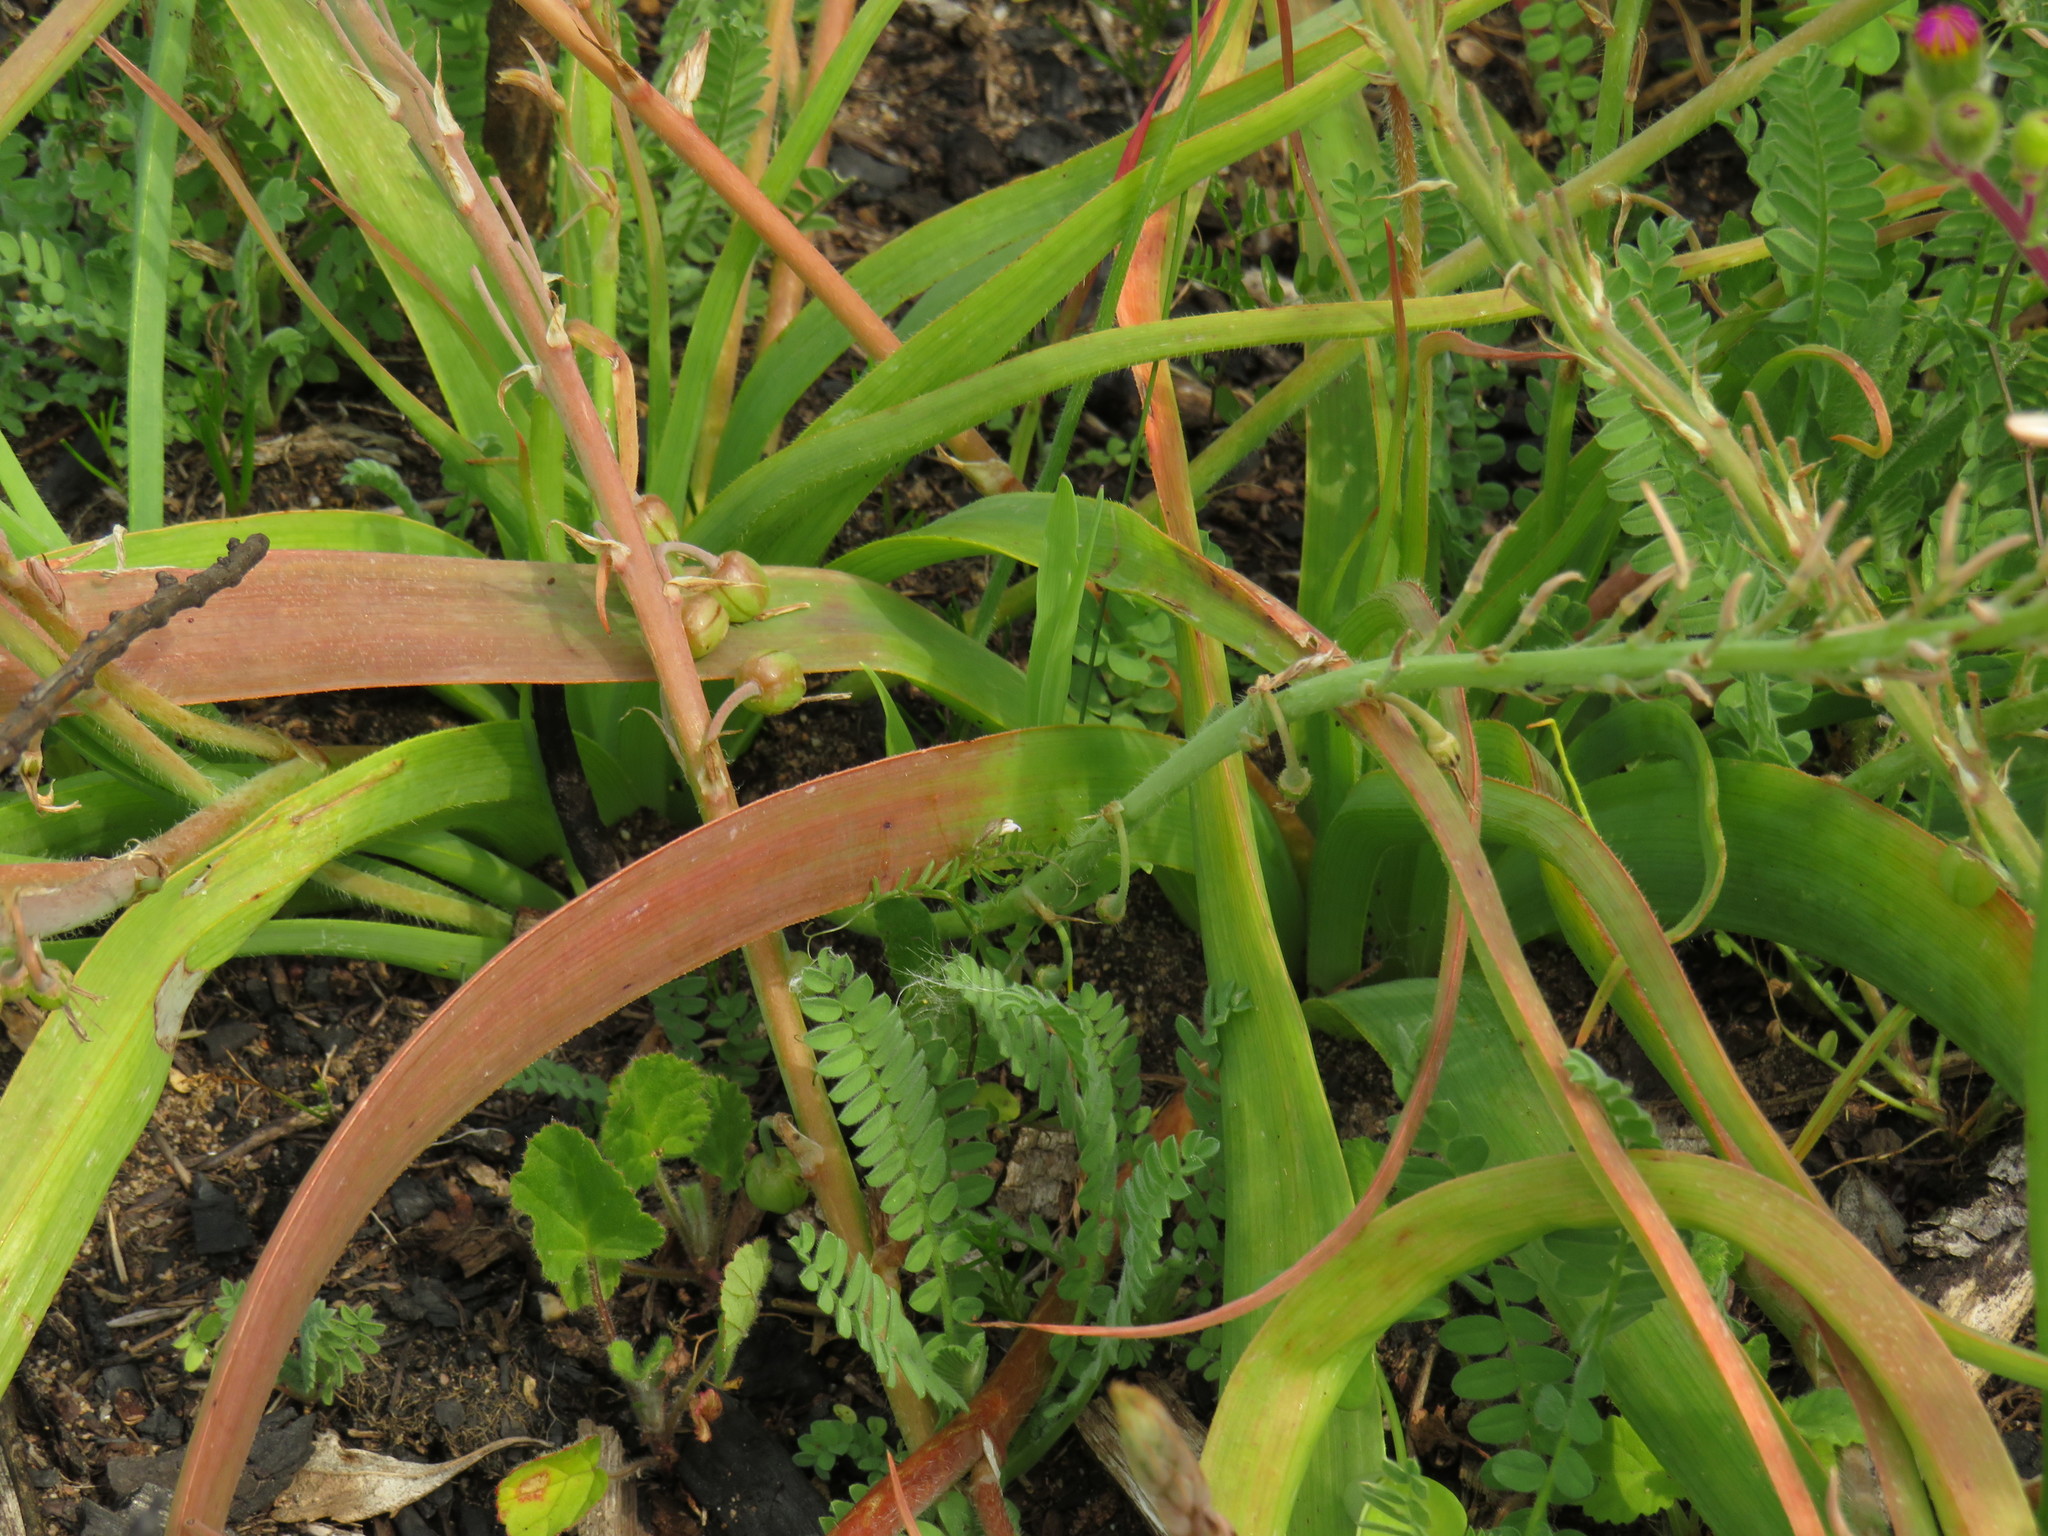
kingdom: Plantae
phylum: Tracheophyta
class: Liliopsida
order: Asparagales
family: Asphodelaceae
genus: Trachyandra
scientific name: Trachyandra ciliata
